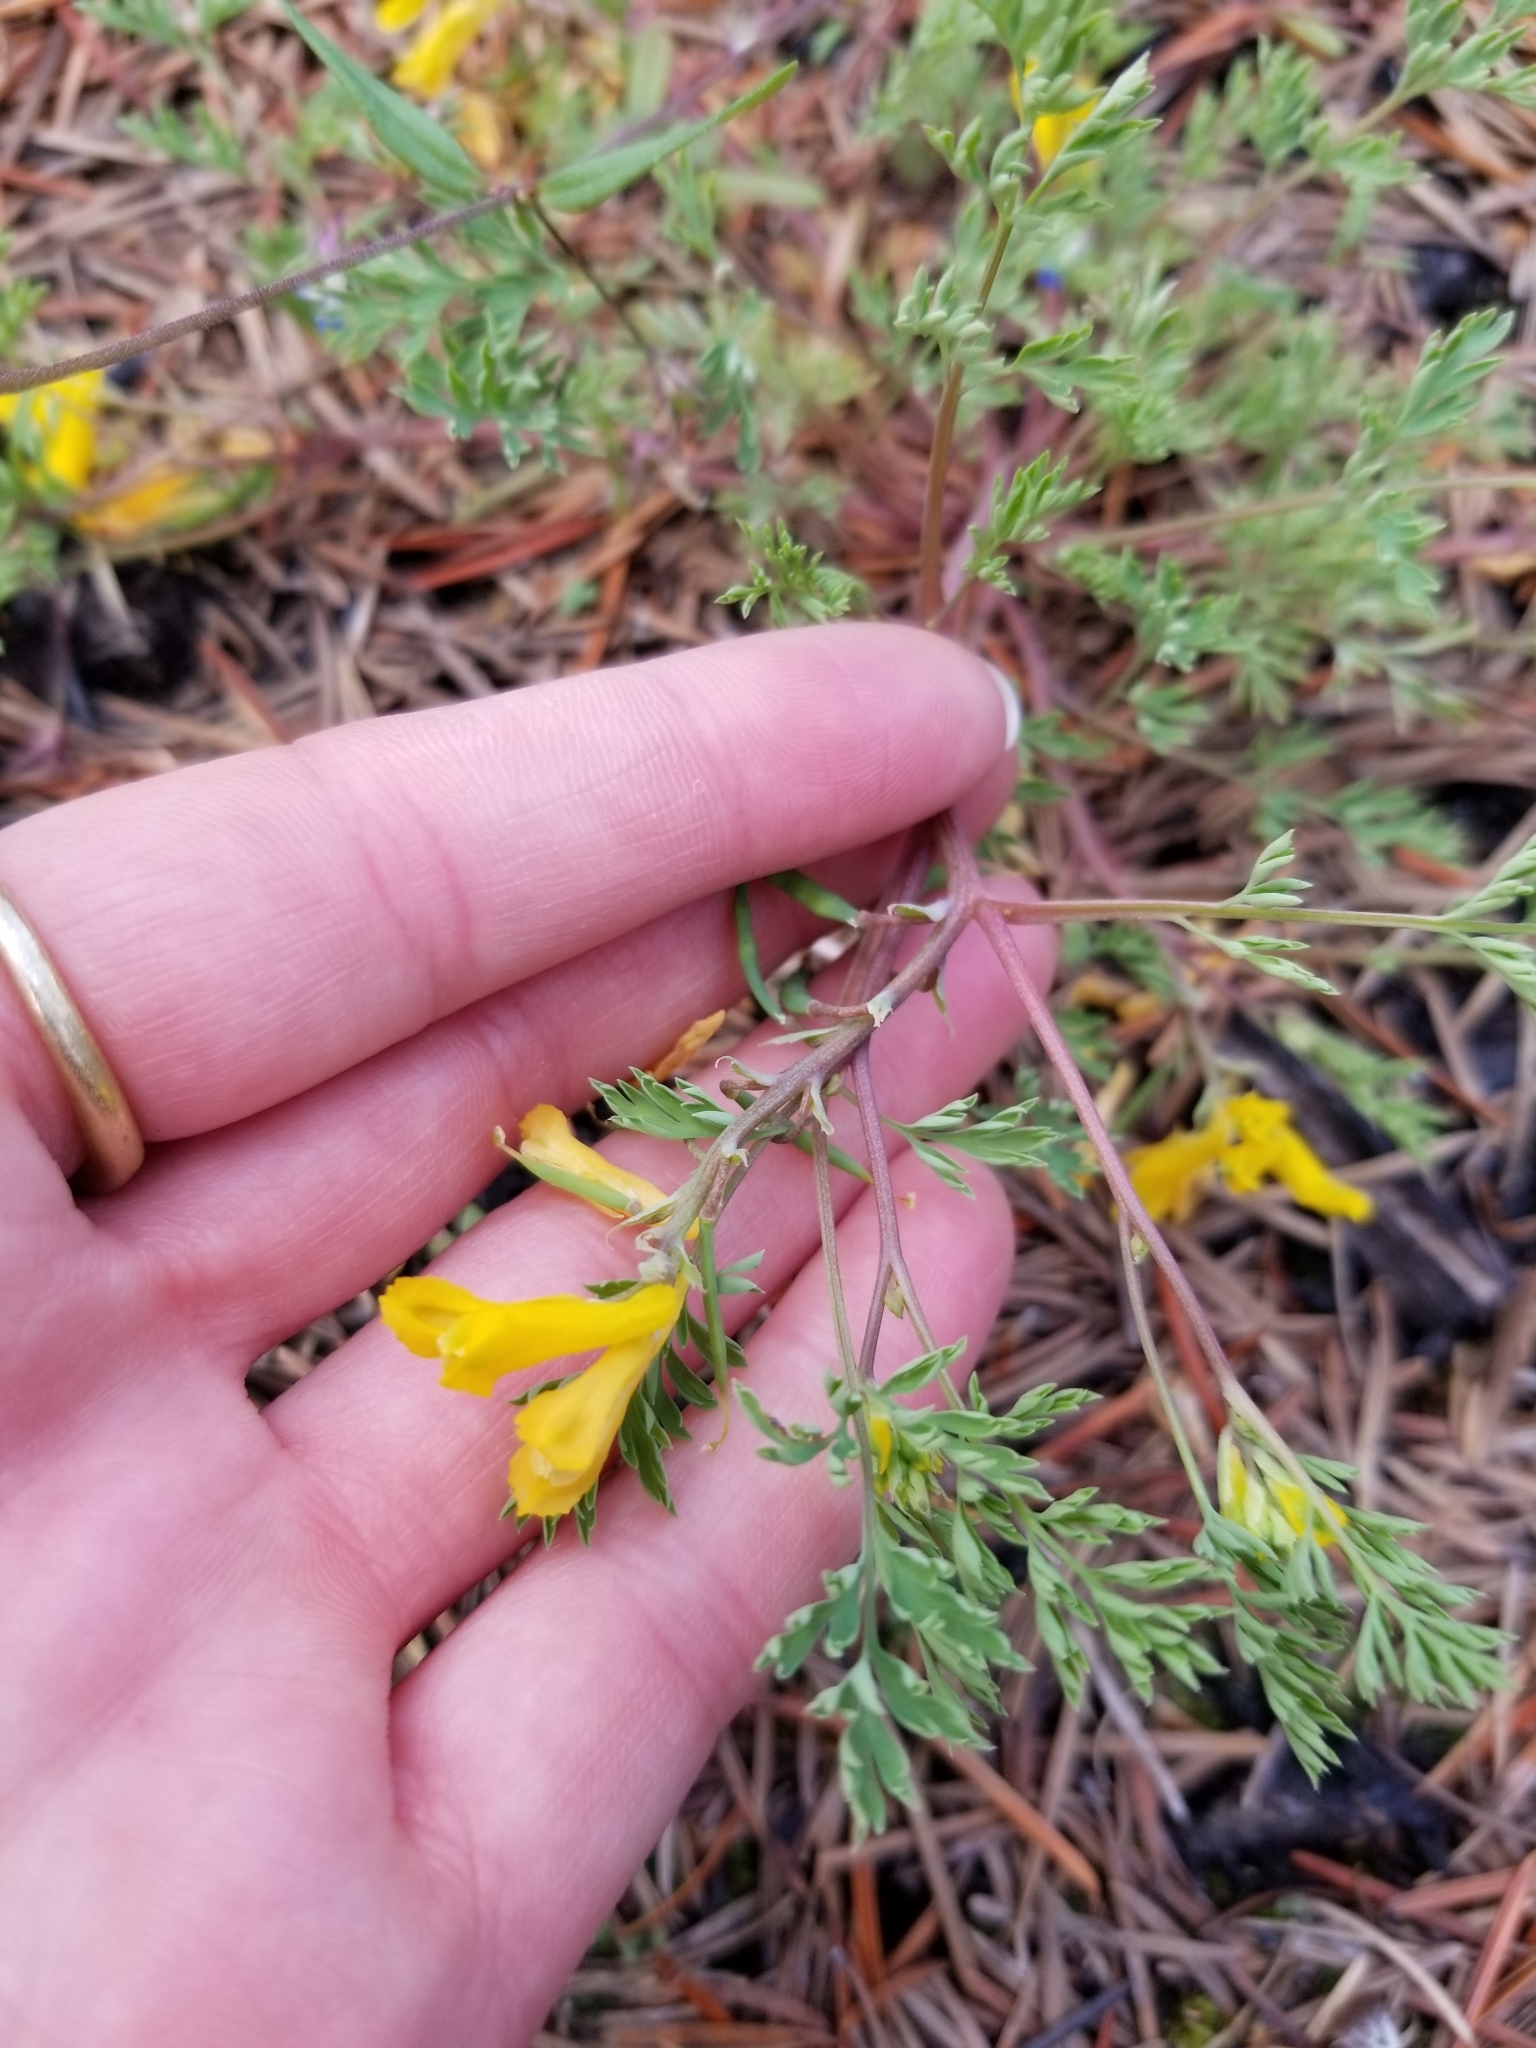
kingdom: Plantae
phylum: Tracheophyta
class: Magnoliopsida
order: Ranunculales
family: Papaveraceae
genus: Corydalis
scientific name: Corydalis aurea
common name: Golden corydalis
